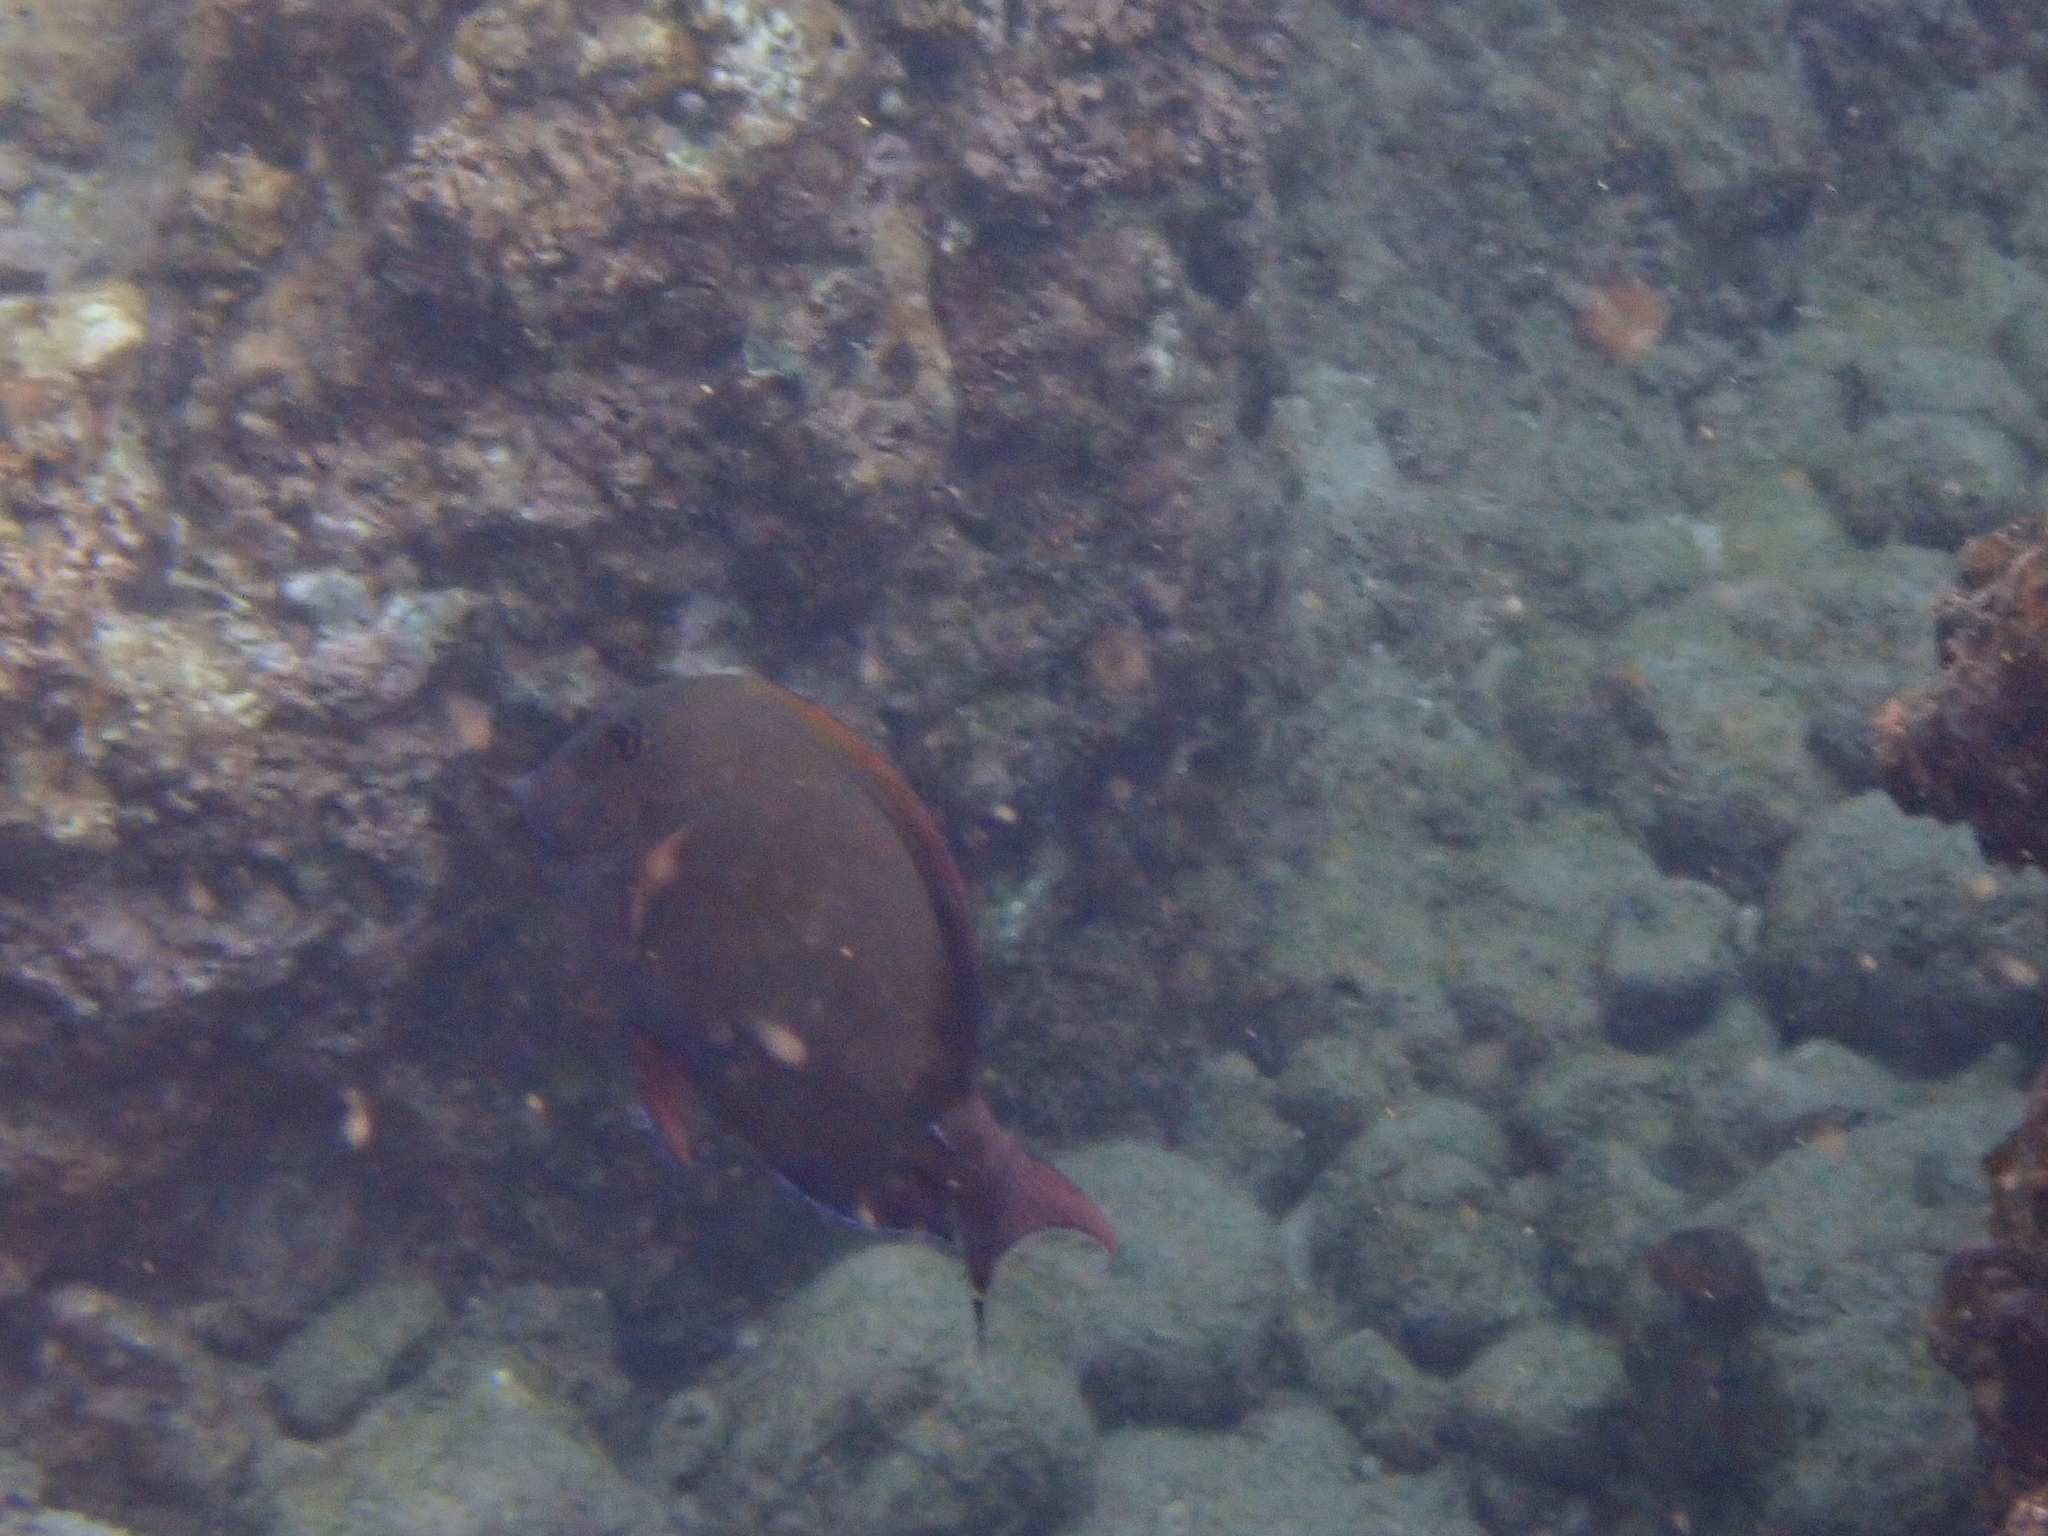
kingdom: Animalia
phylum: Chordata
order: Perciformes
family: Acanthuridae
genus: Acanthurus
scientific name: Acanthurus nigrofuscus
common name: Blackspot surgeonfish
